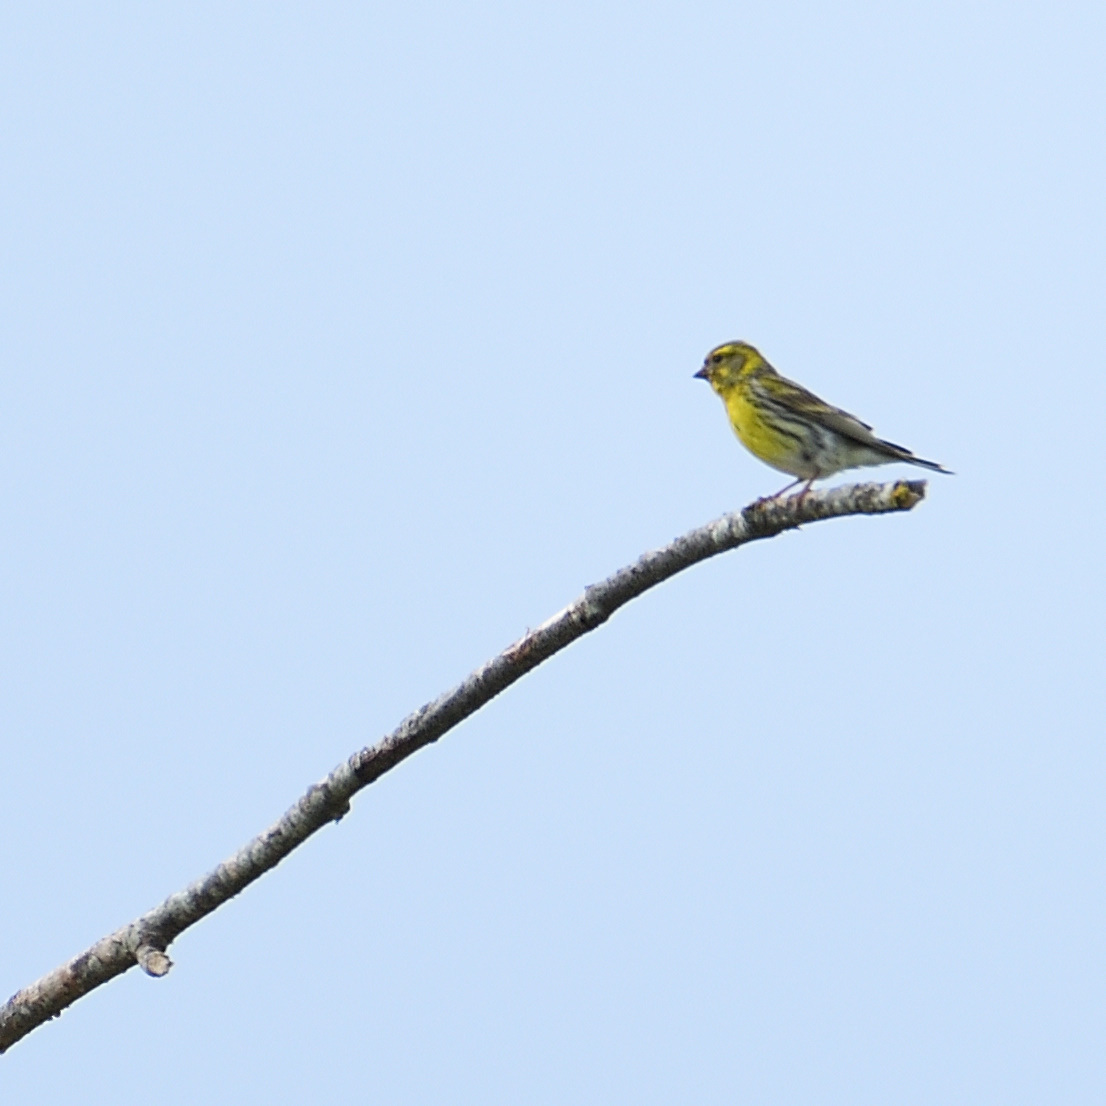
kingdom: Animalia
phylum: Chordata
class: Aves
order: Passeriformes
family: Fringillidae
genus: Serinus
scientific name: Serinus serinus
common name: European serin
